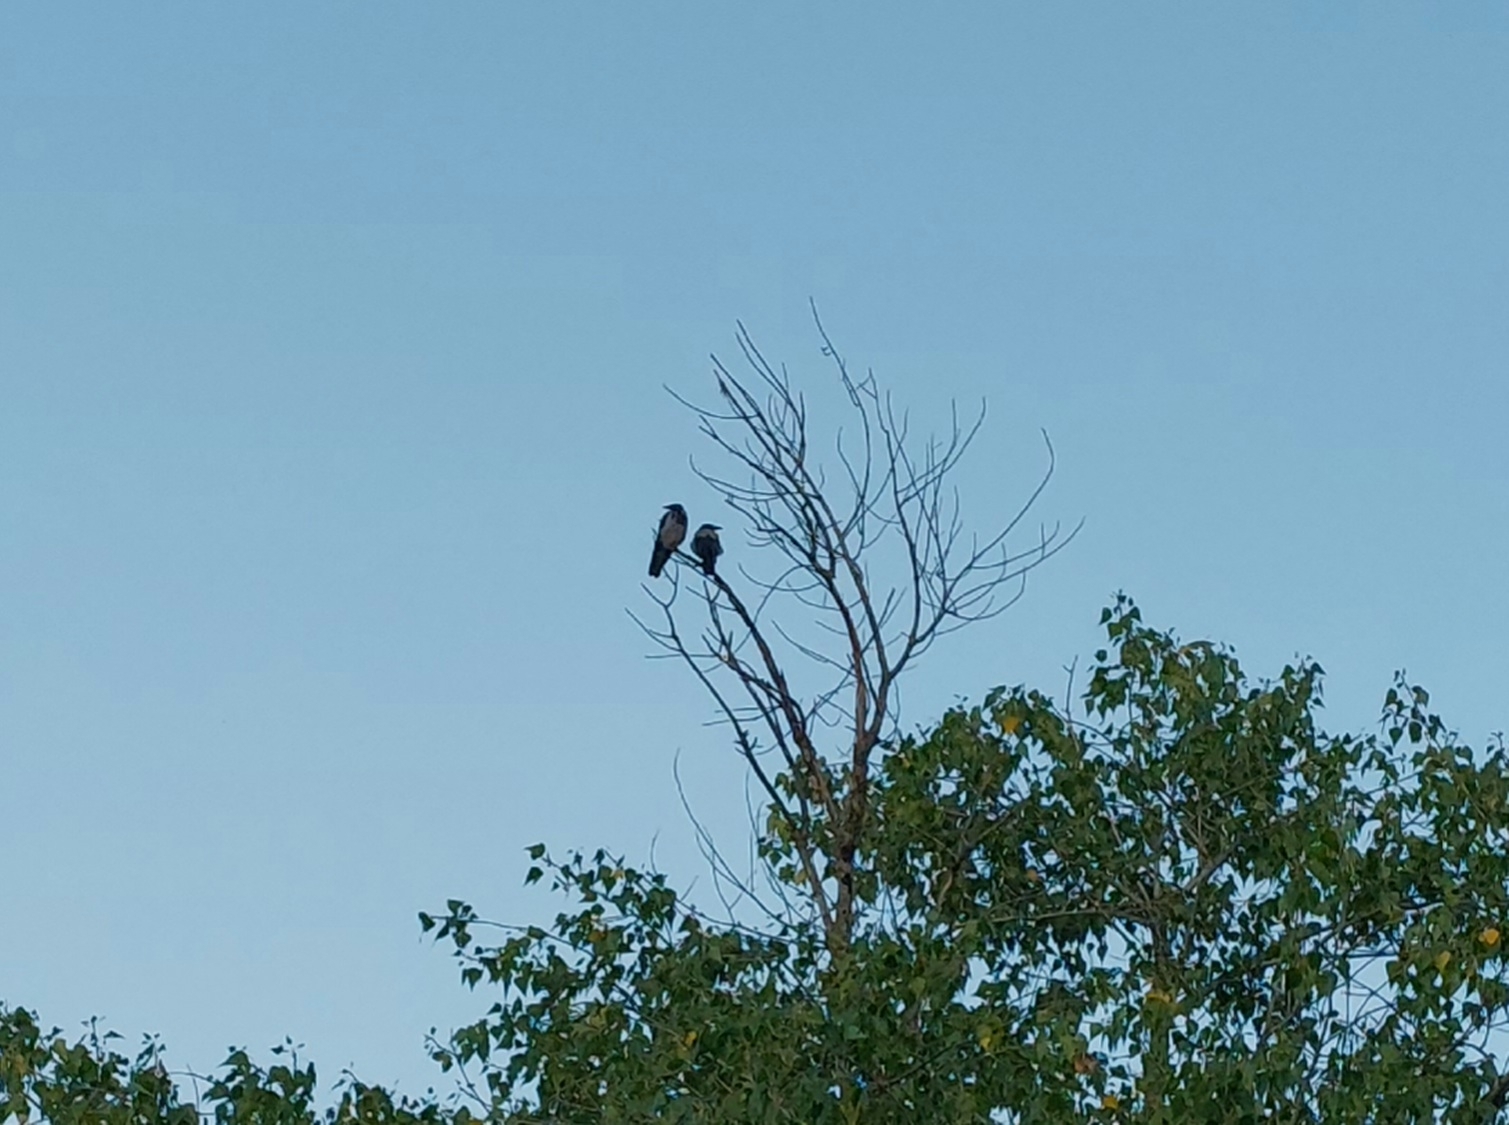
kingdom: Animalia
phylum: Chordata
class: Aves
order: Passeriformes
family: Corvidae
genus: Corvus
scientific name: Corvus cornix
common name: Hooded crow
